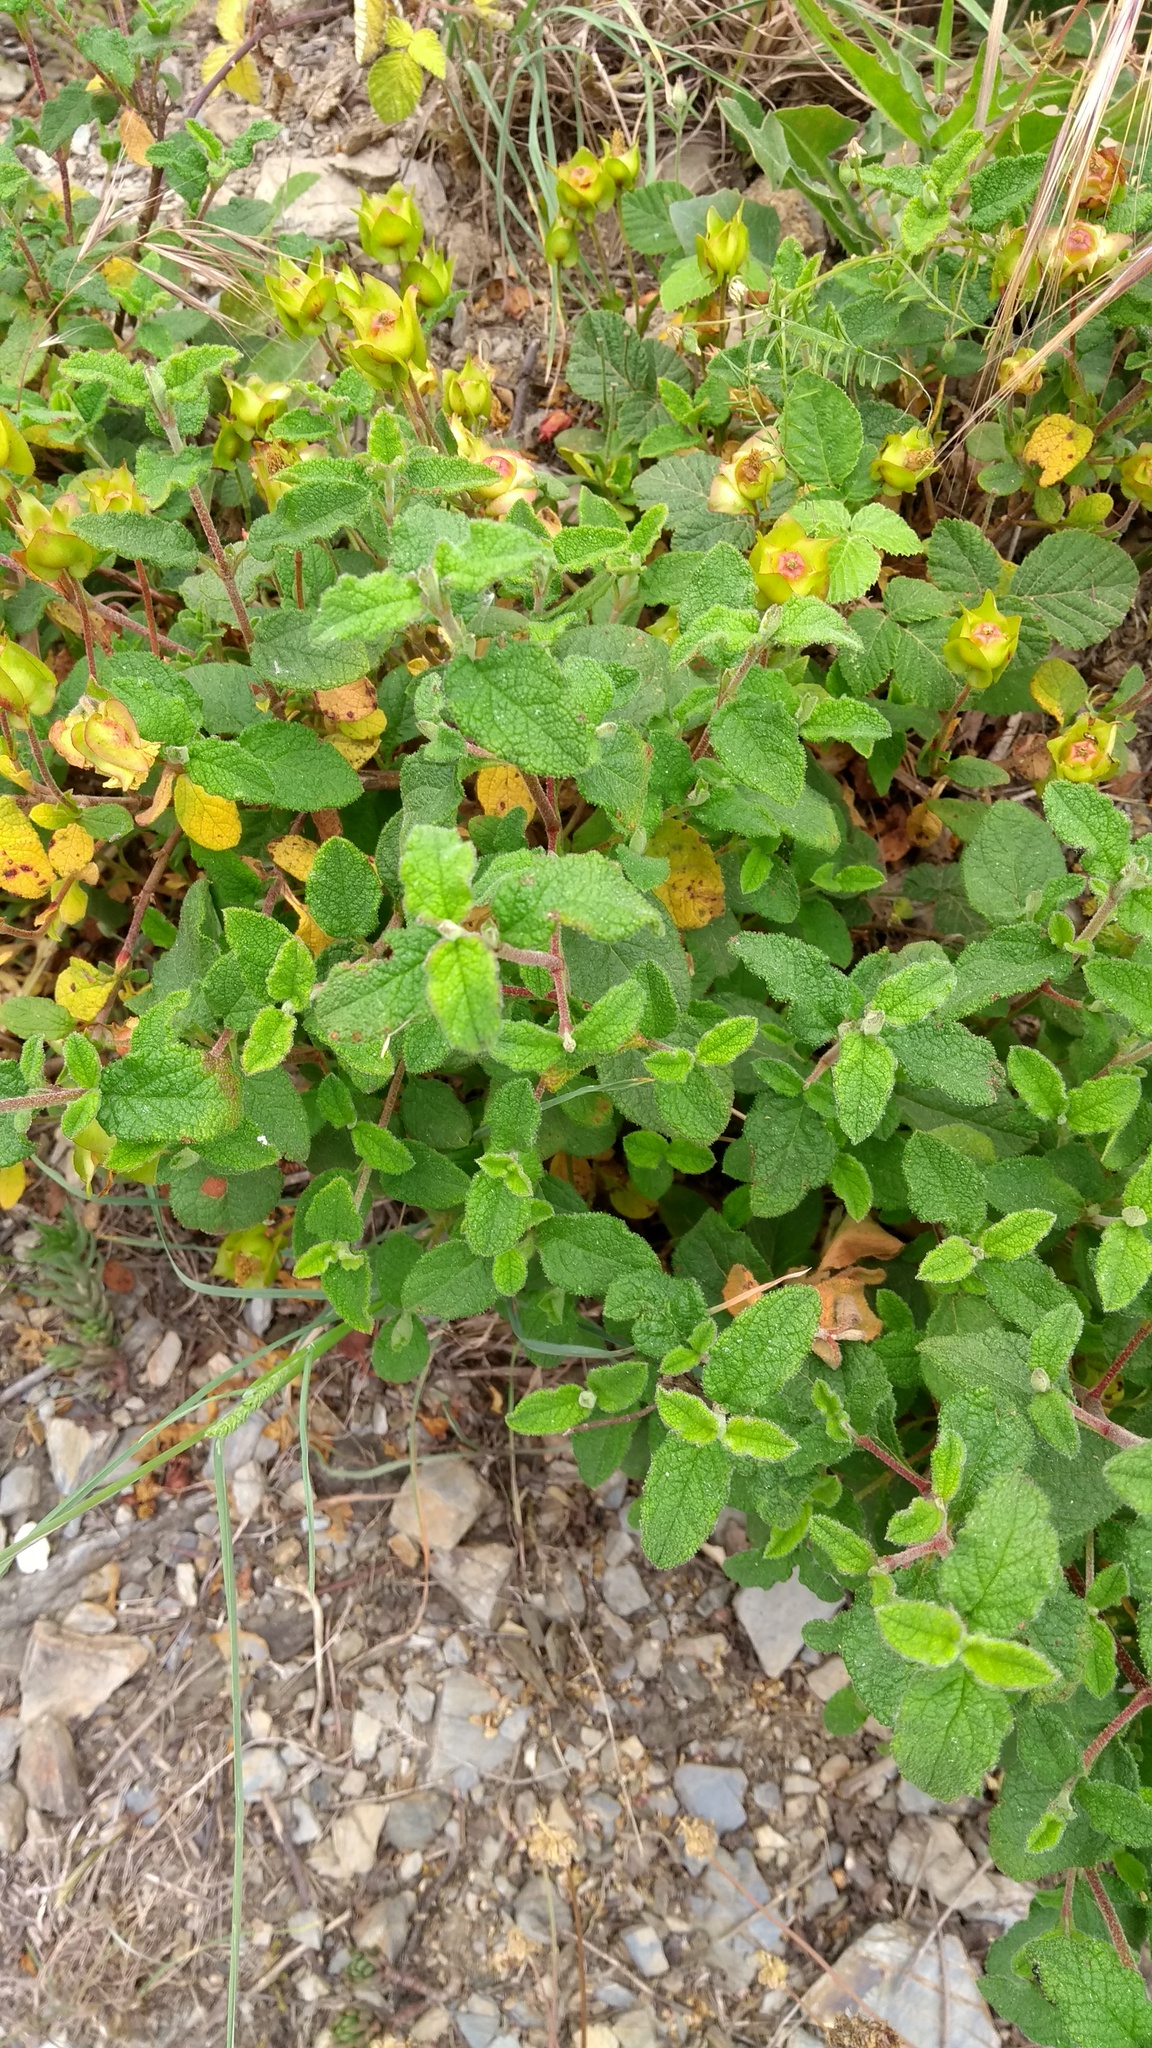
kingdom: Plantae
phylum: Tracheophyta
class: Magnoliopsida
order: Malvales
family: Cistaceae
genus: Cistus
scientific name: Cistus salviifolius
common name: Salvia cistus
